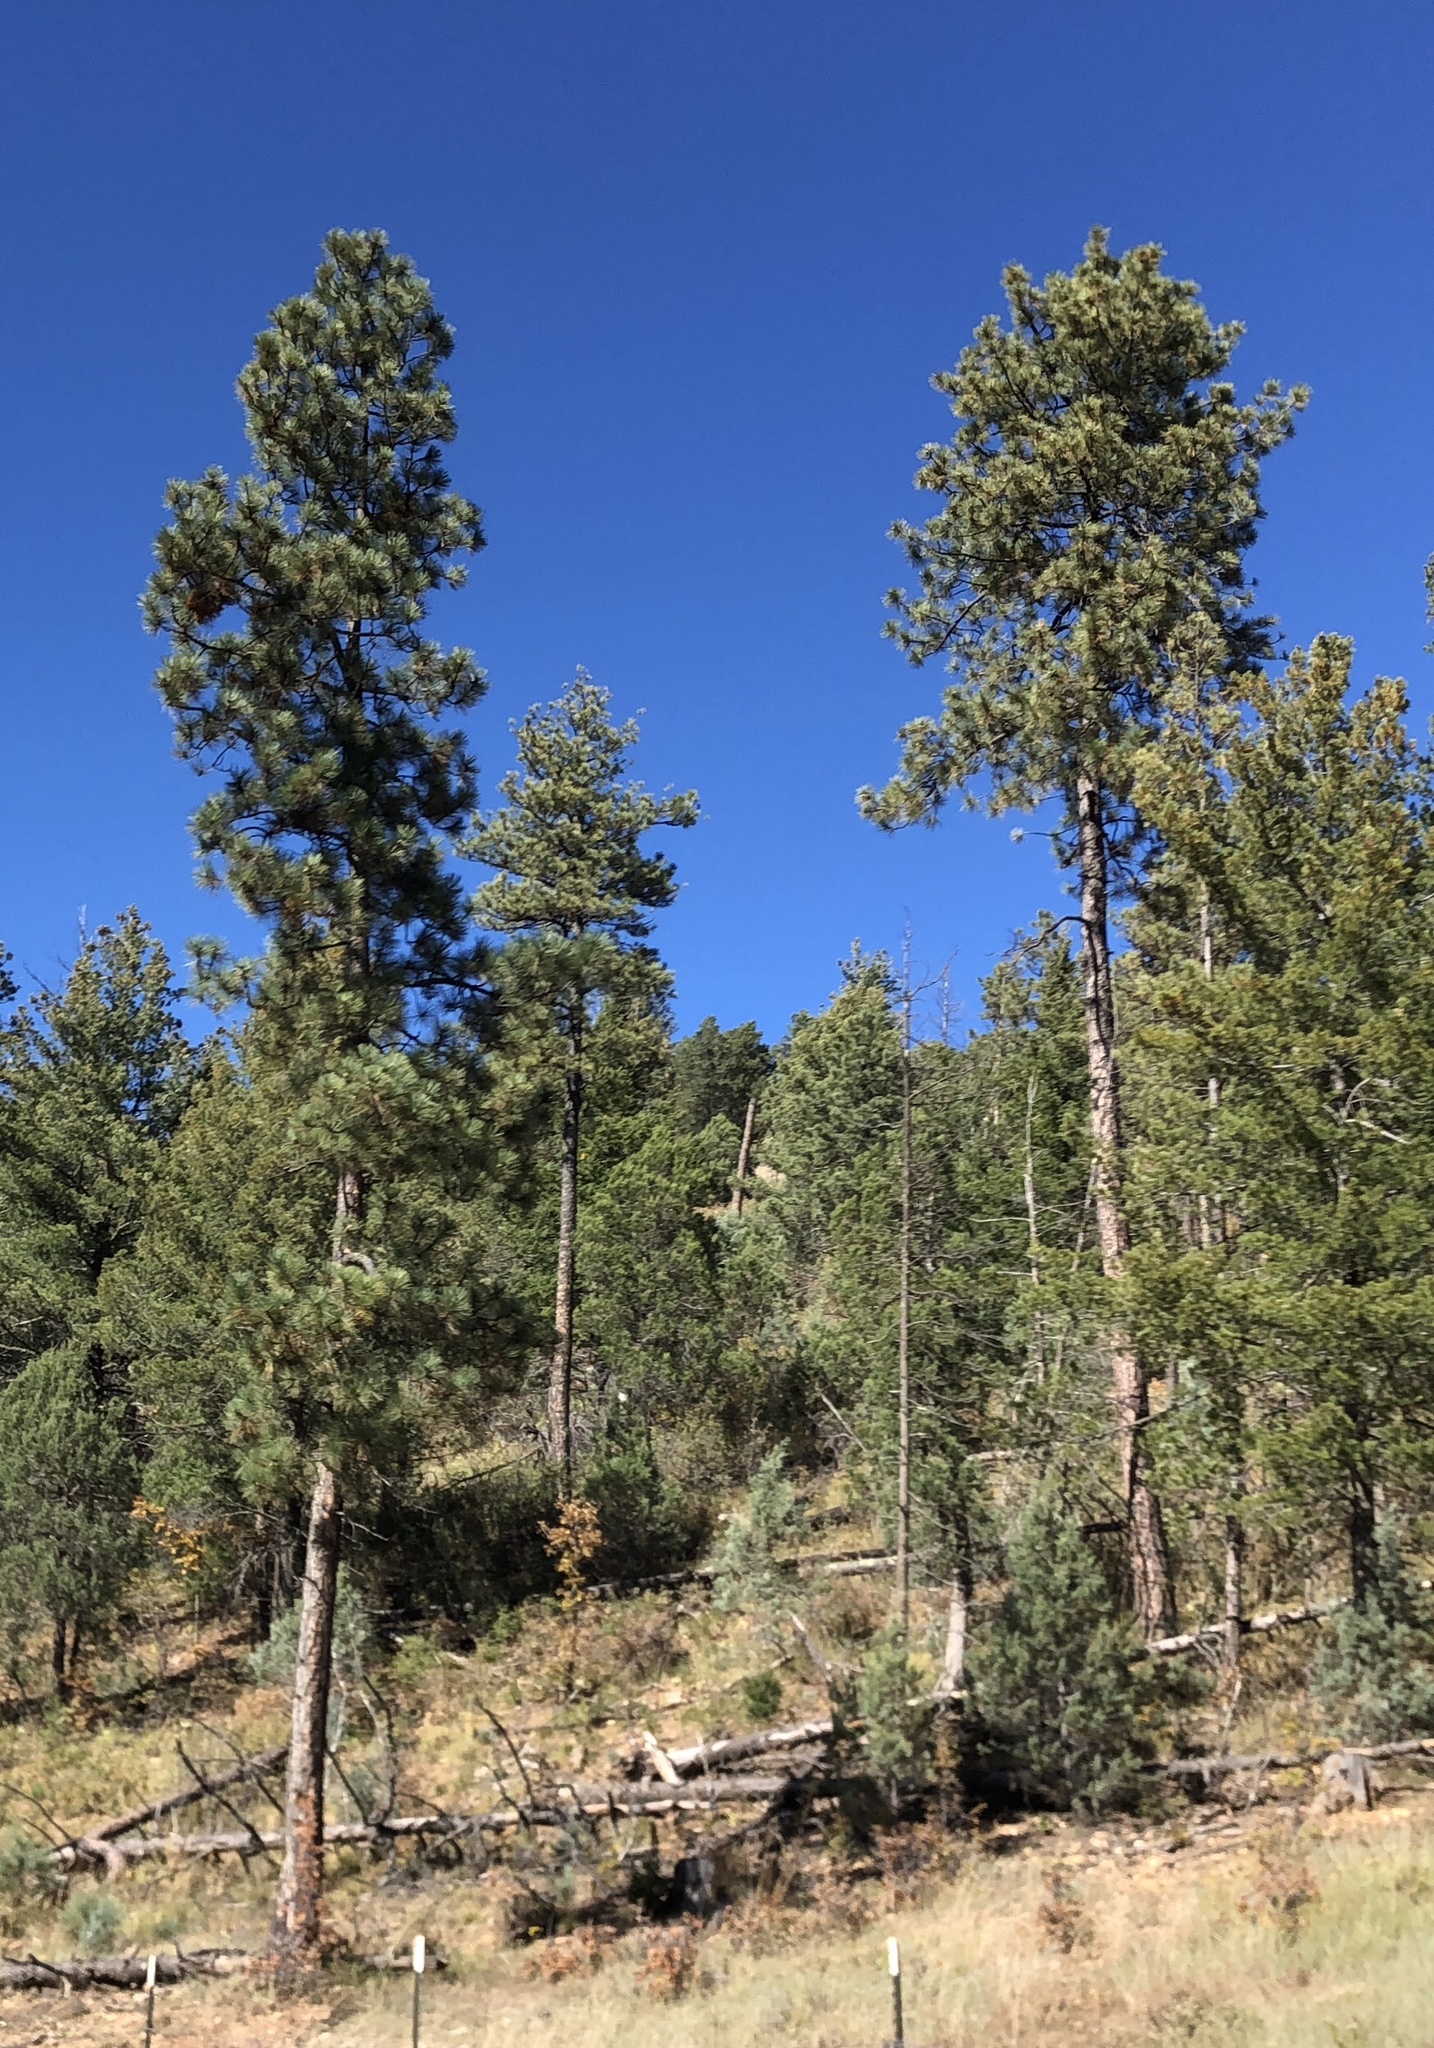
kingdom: Plantae
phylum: Tracheophyta
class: Pinopsida
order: Pinales
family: Pinaceae
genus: Pinus
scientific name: Pinus ponderosa
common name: Western yellow-pine
